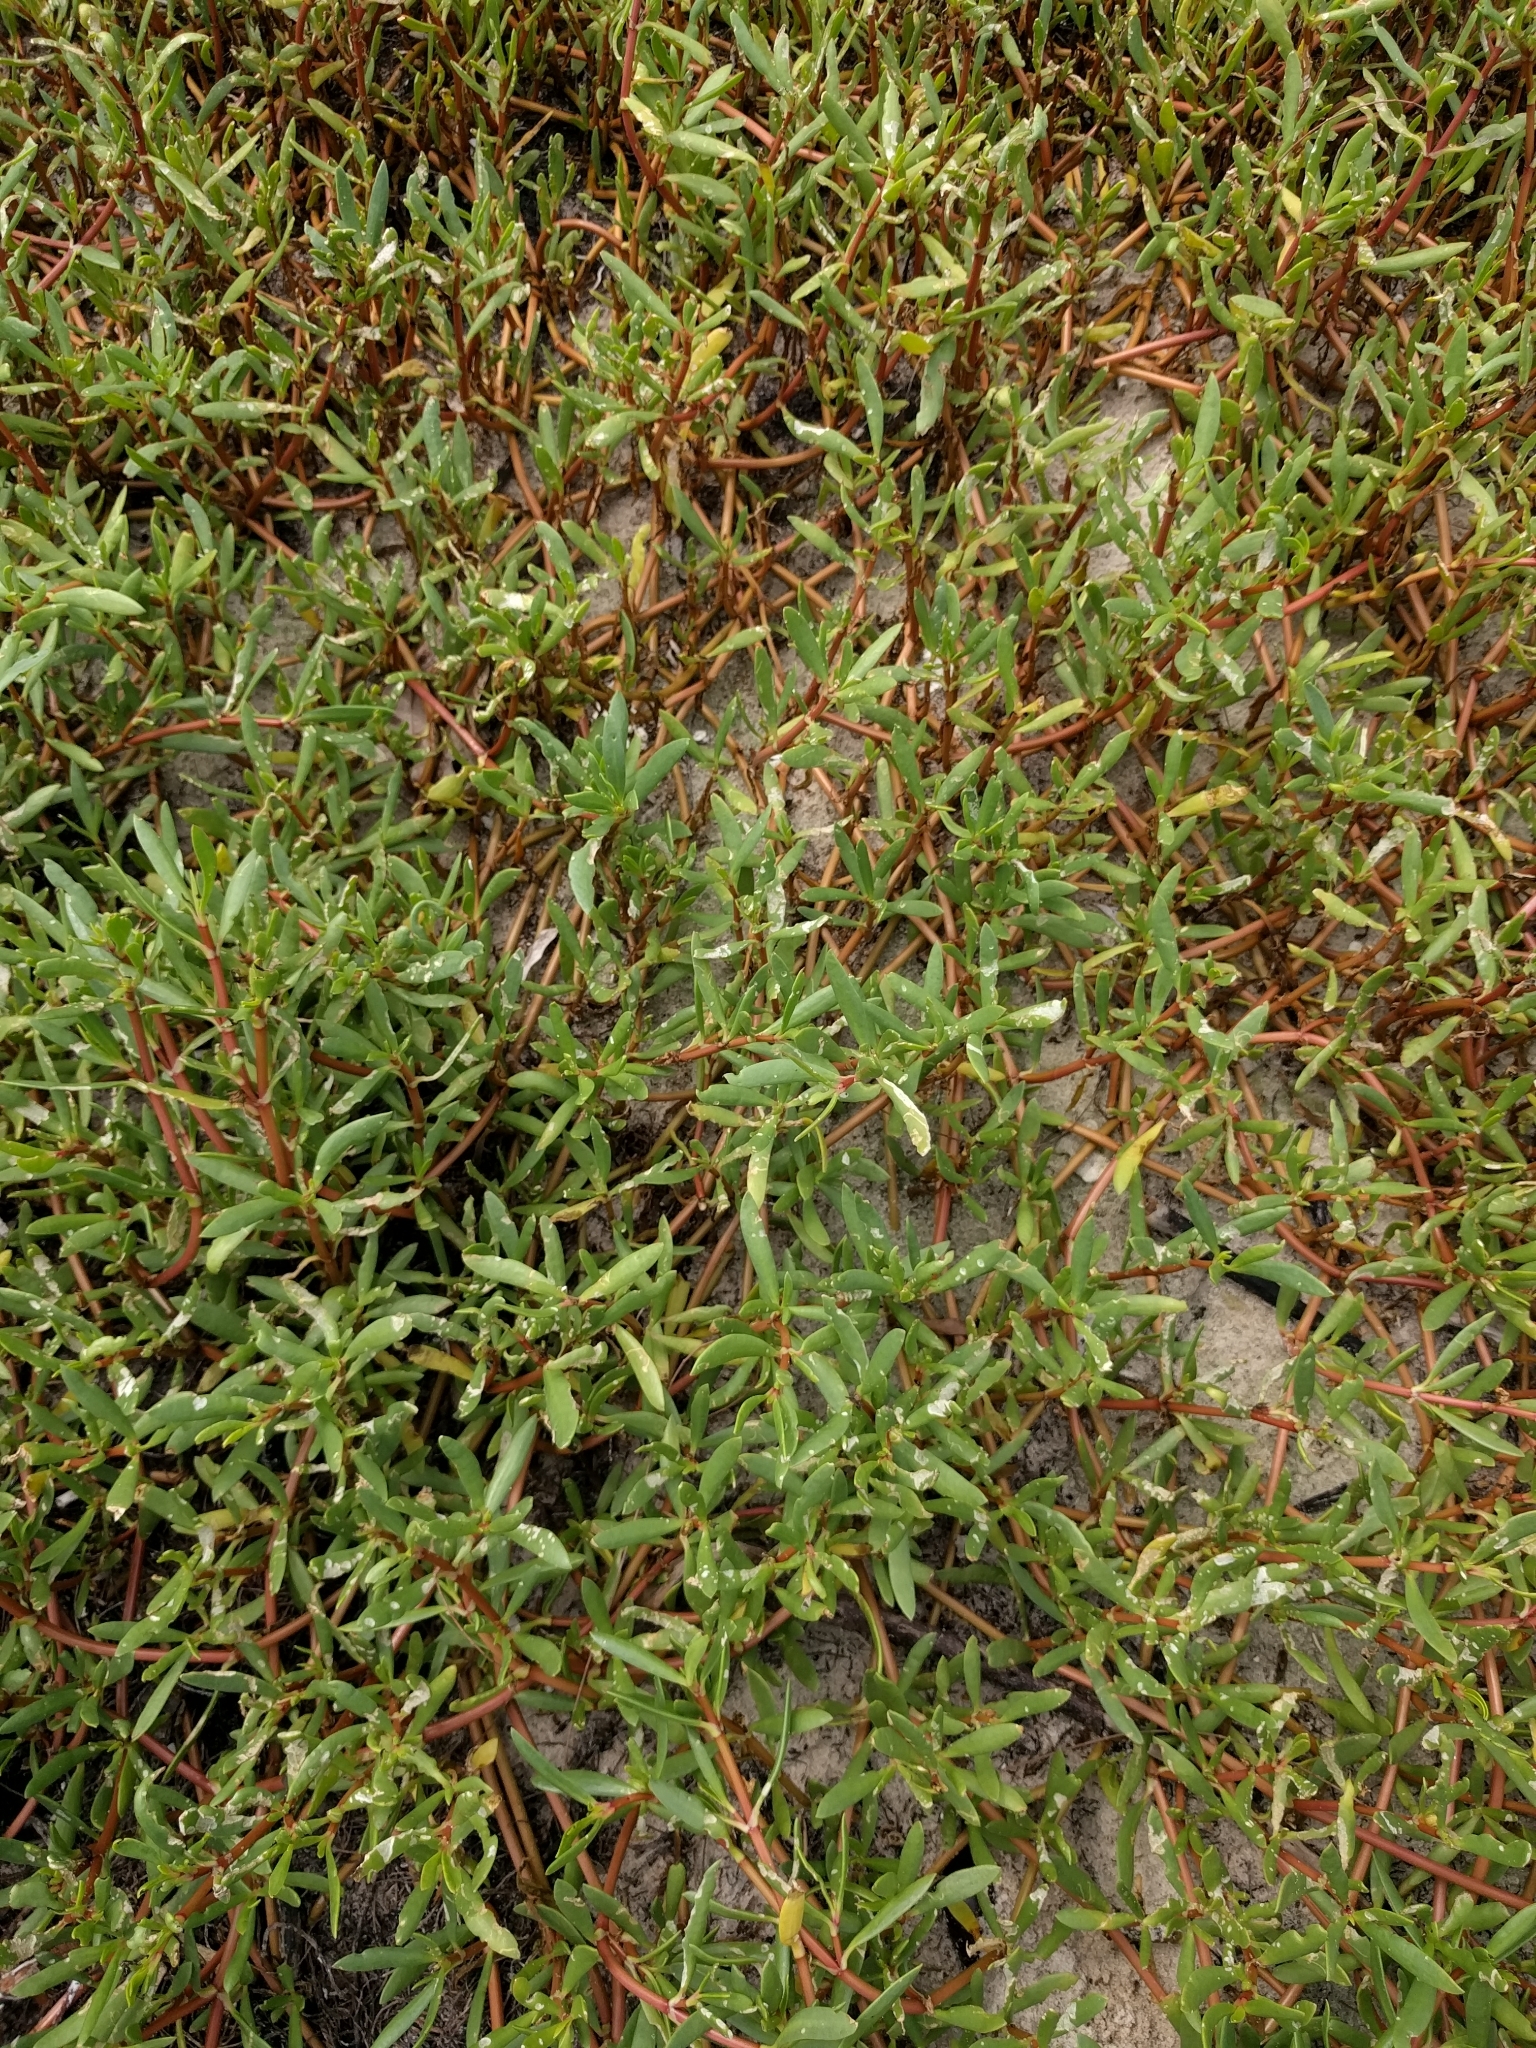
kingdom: Plantae
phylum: Tracheophyta
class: Magnoliopsida
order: Caryophyllales
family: Aizoaceae
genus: Sesuvium
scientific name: Sesuvium portulacastrum
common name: Sea-purslane
